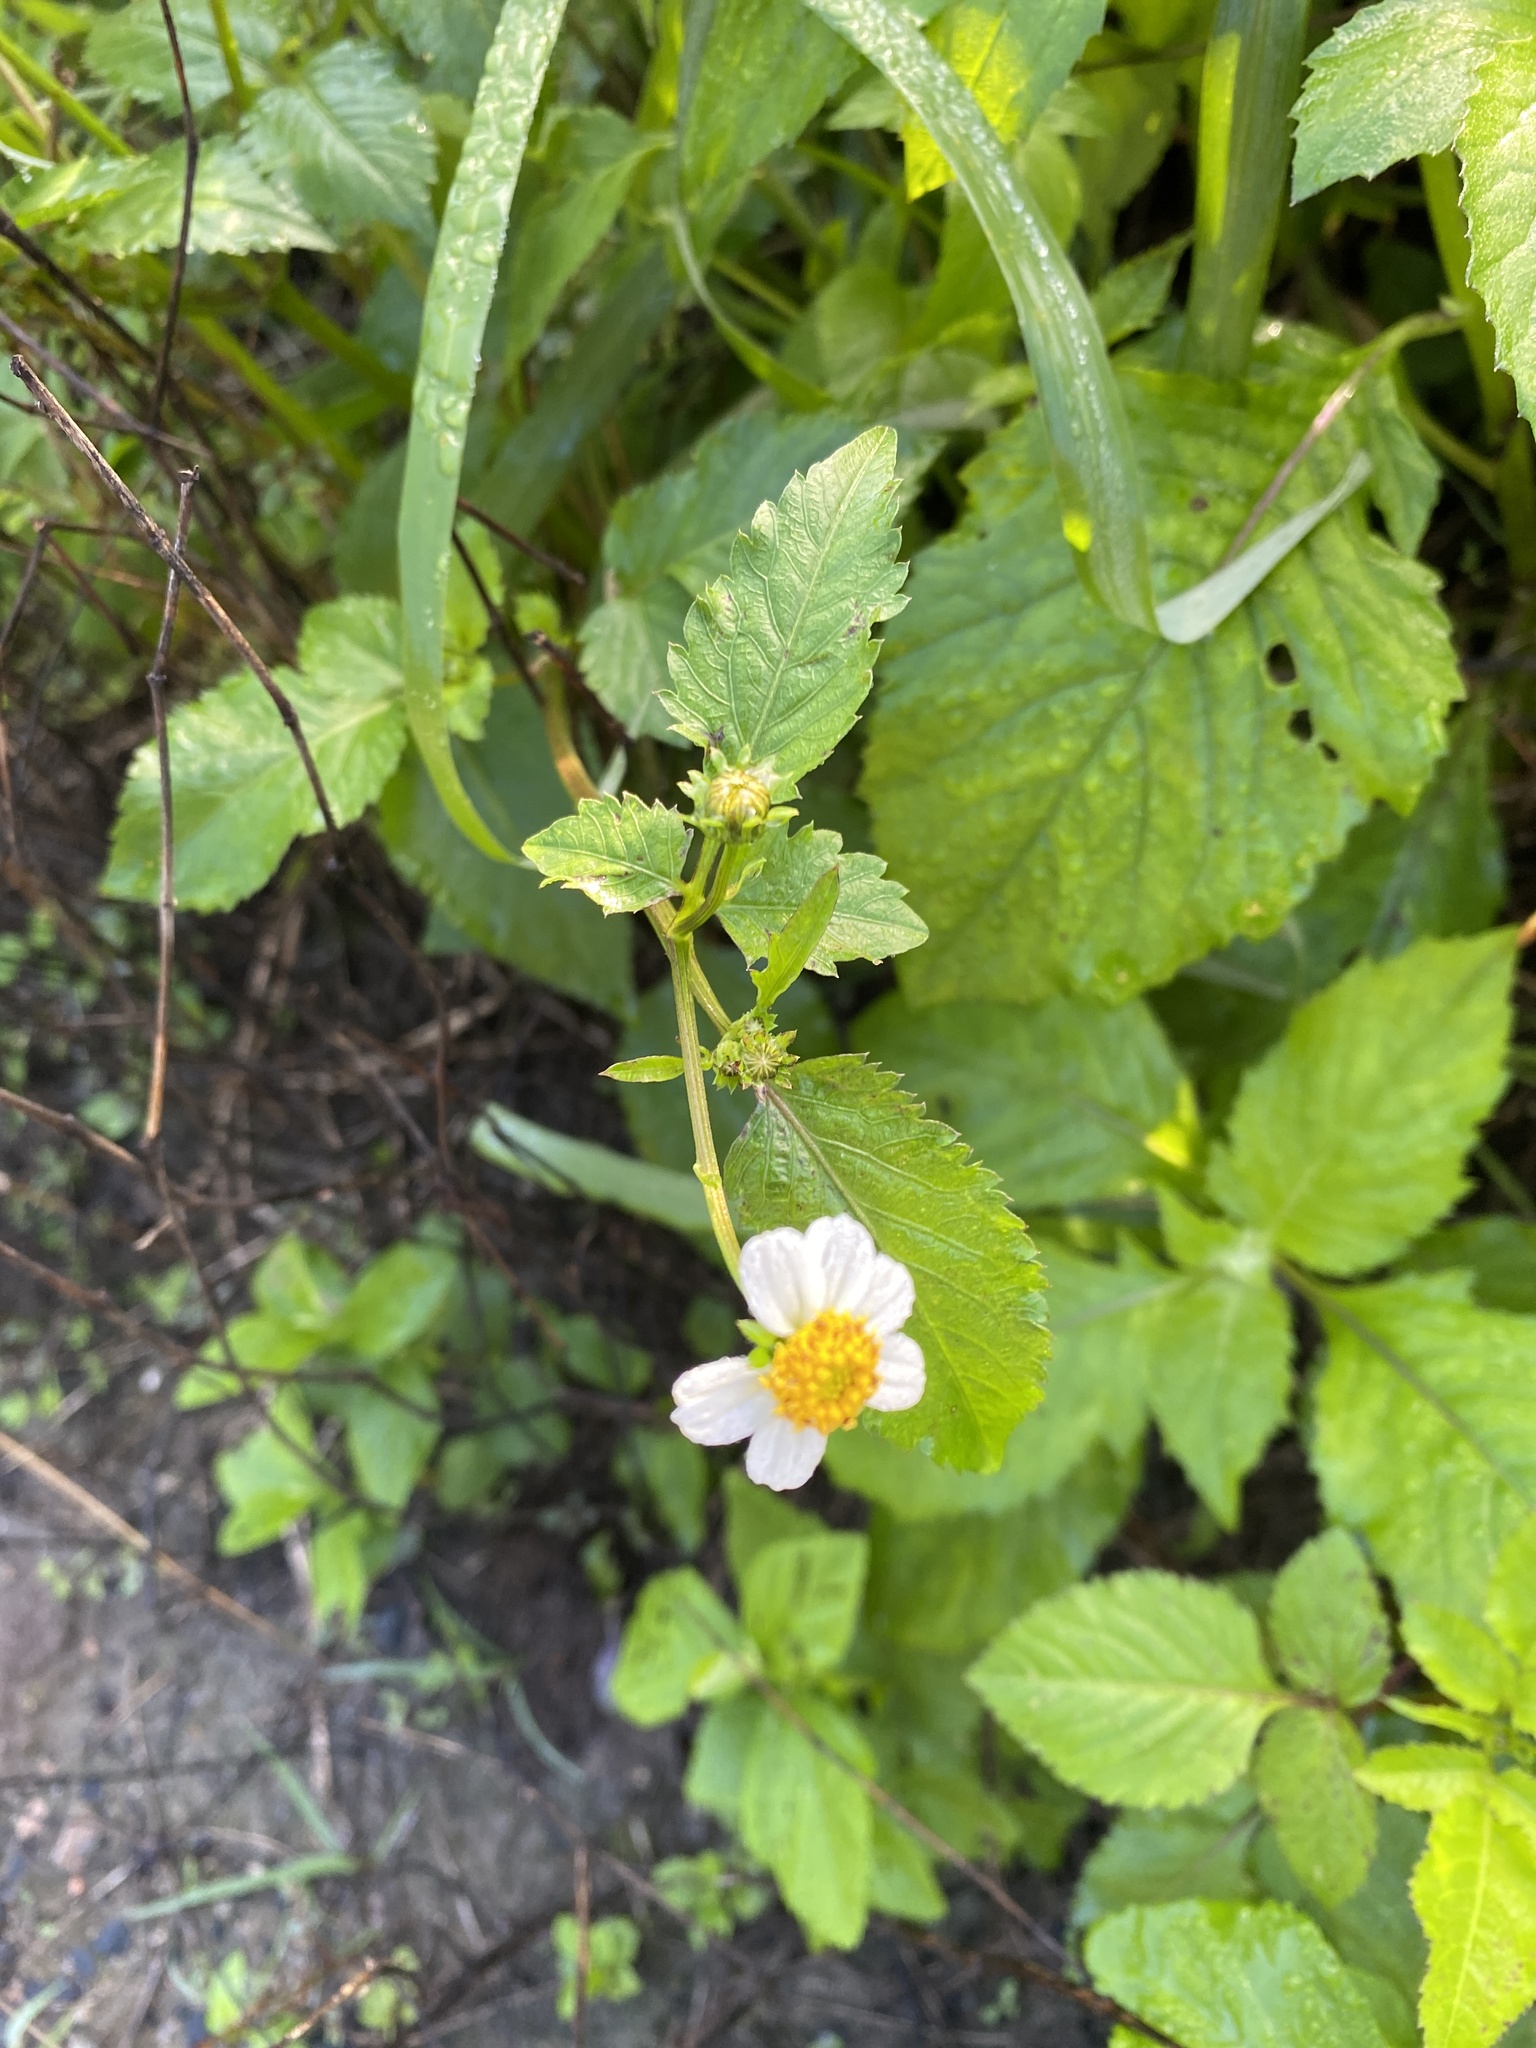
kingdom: Plantae
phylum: Tracheophyta
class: Magnoliopsida
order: Asterales
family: Asteraceae
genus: Bidens
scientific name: Bidens alba
